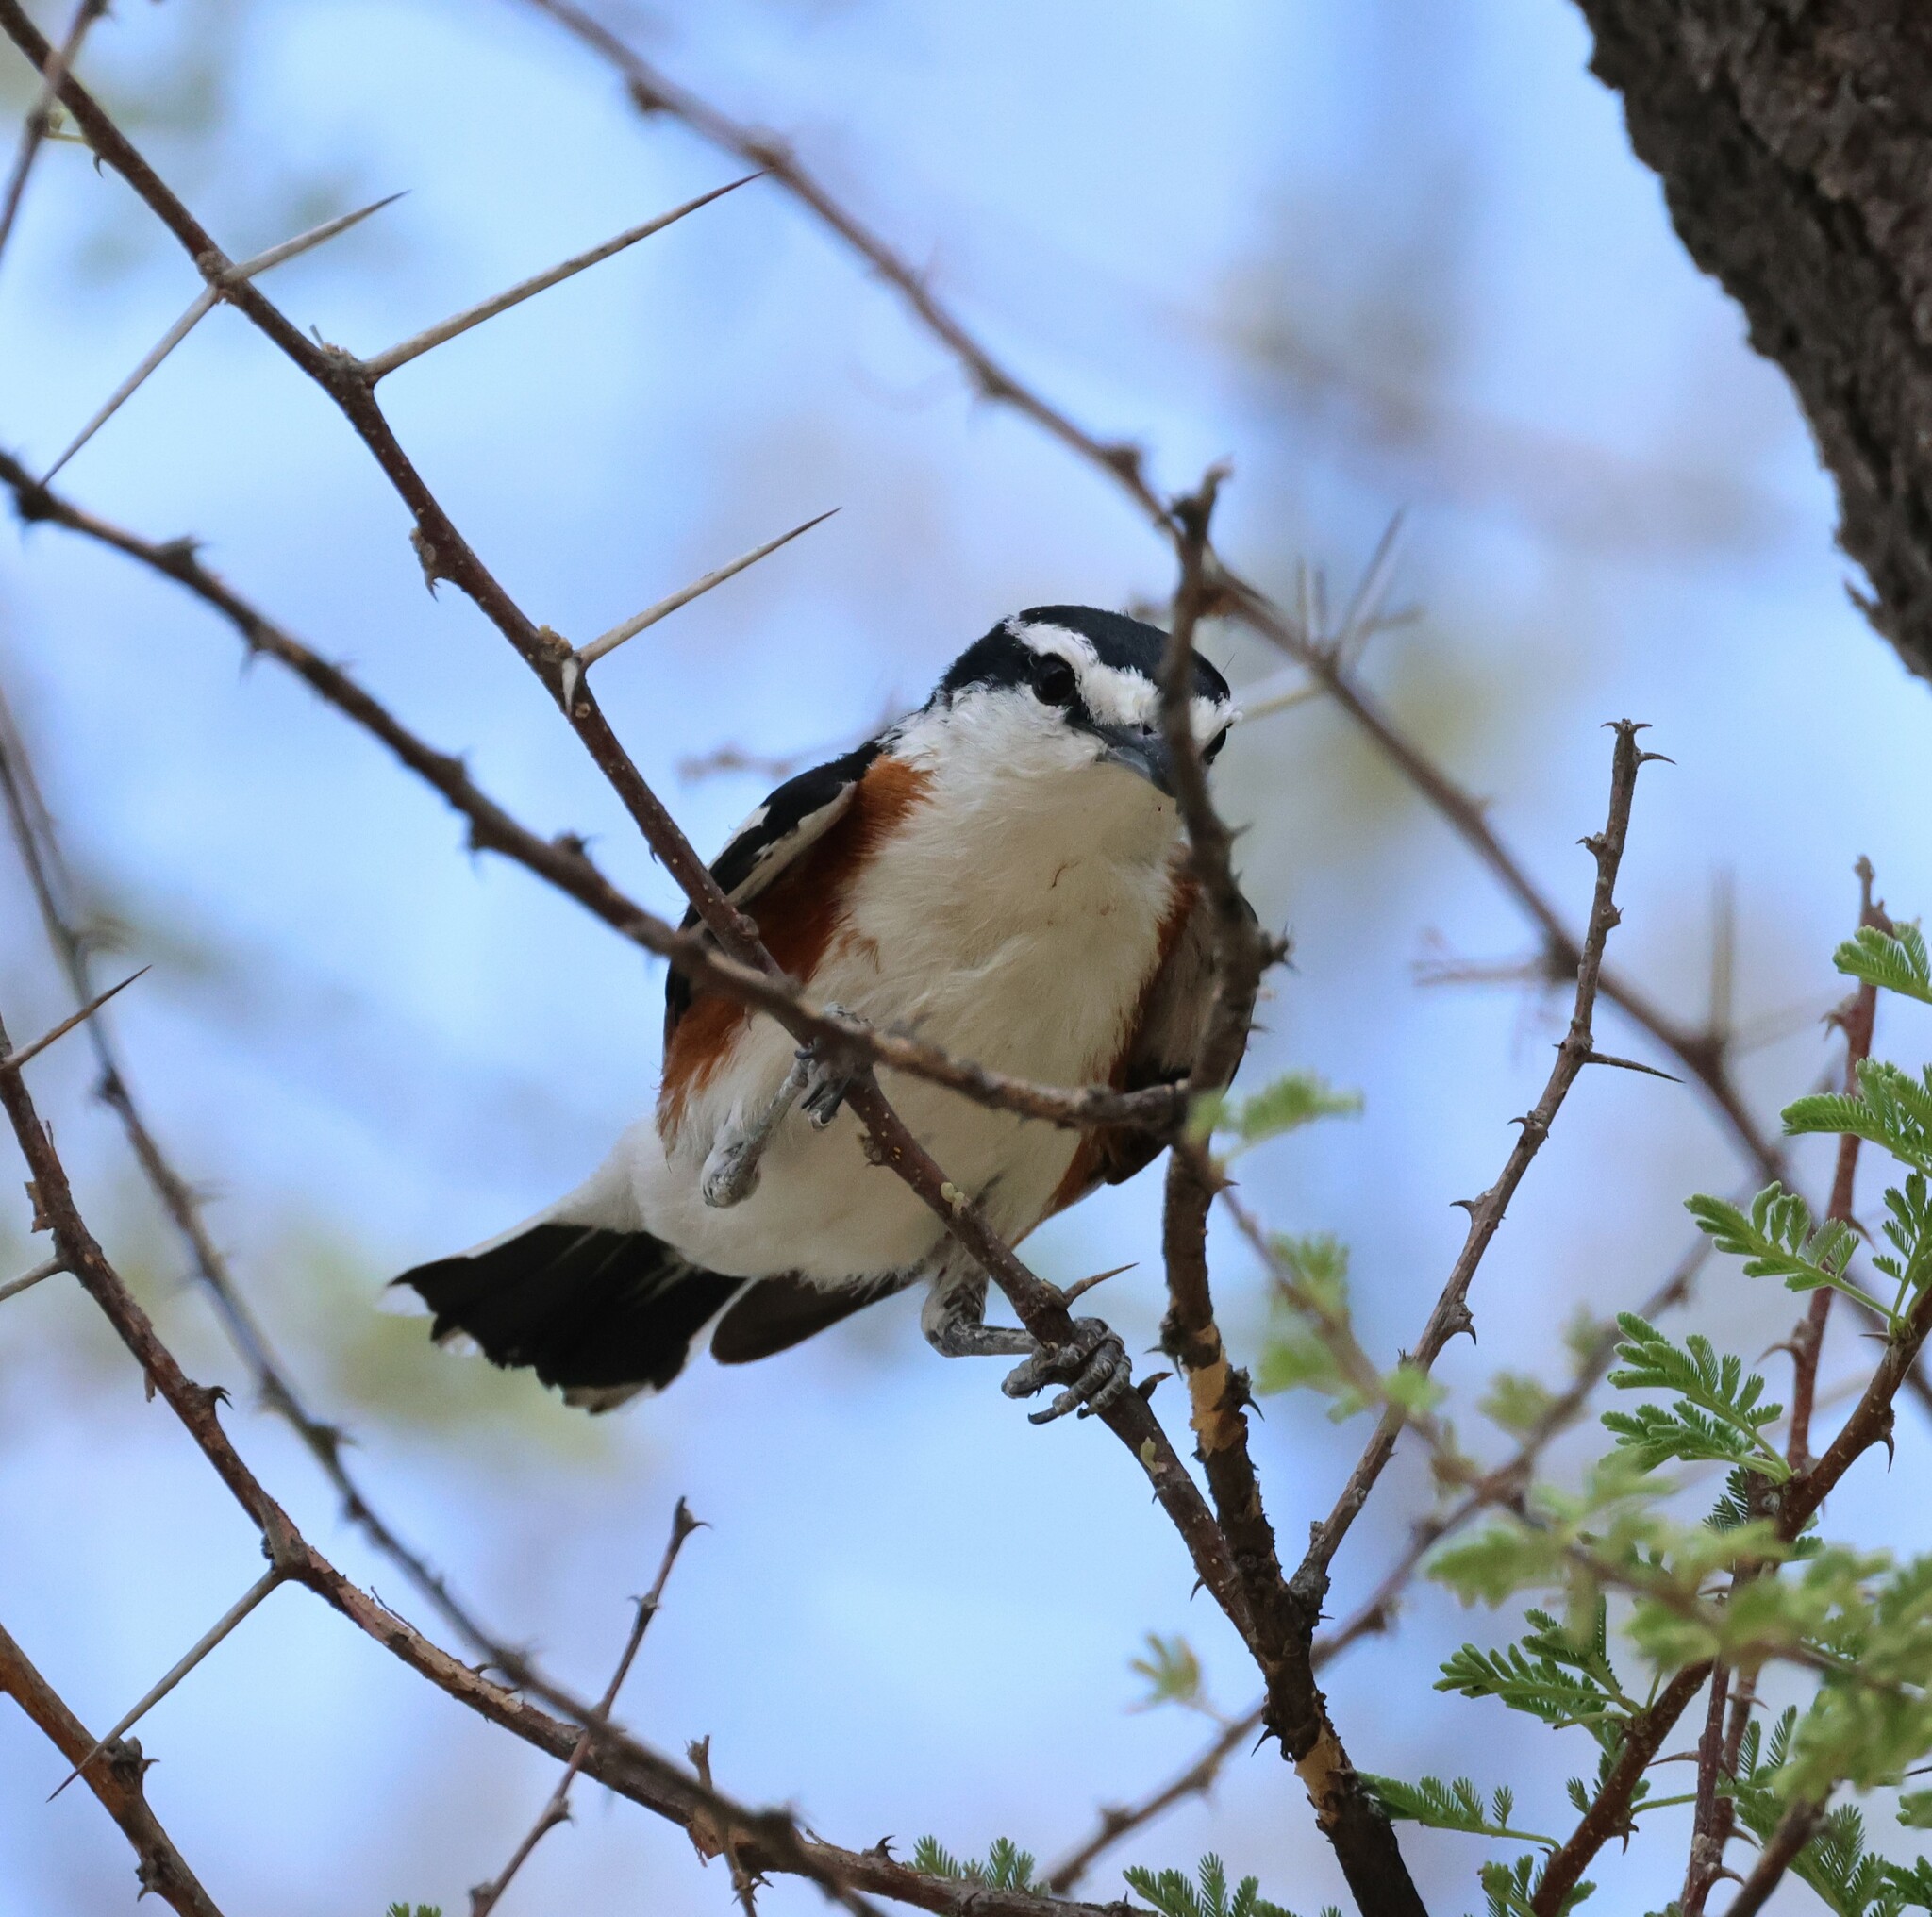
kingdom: Animalia
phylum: Chordata
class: Aves
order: Passeriformes
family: Malaconotidae
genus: Nilaus
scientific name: Nilaus afer
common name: Brubru
